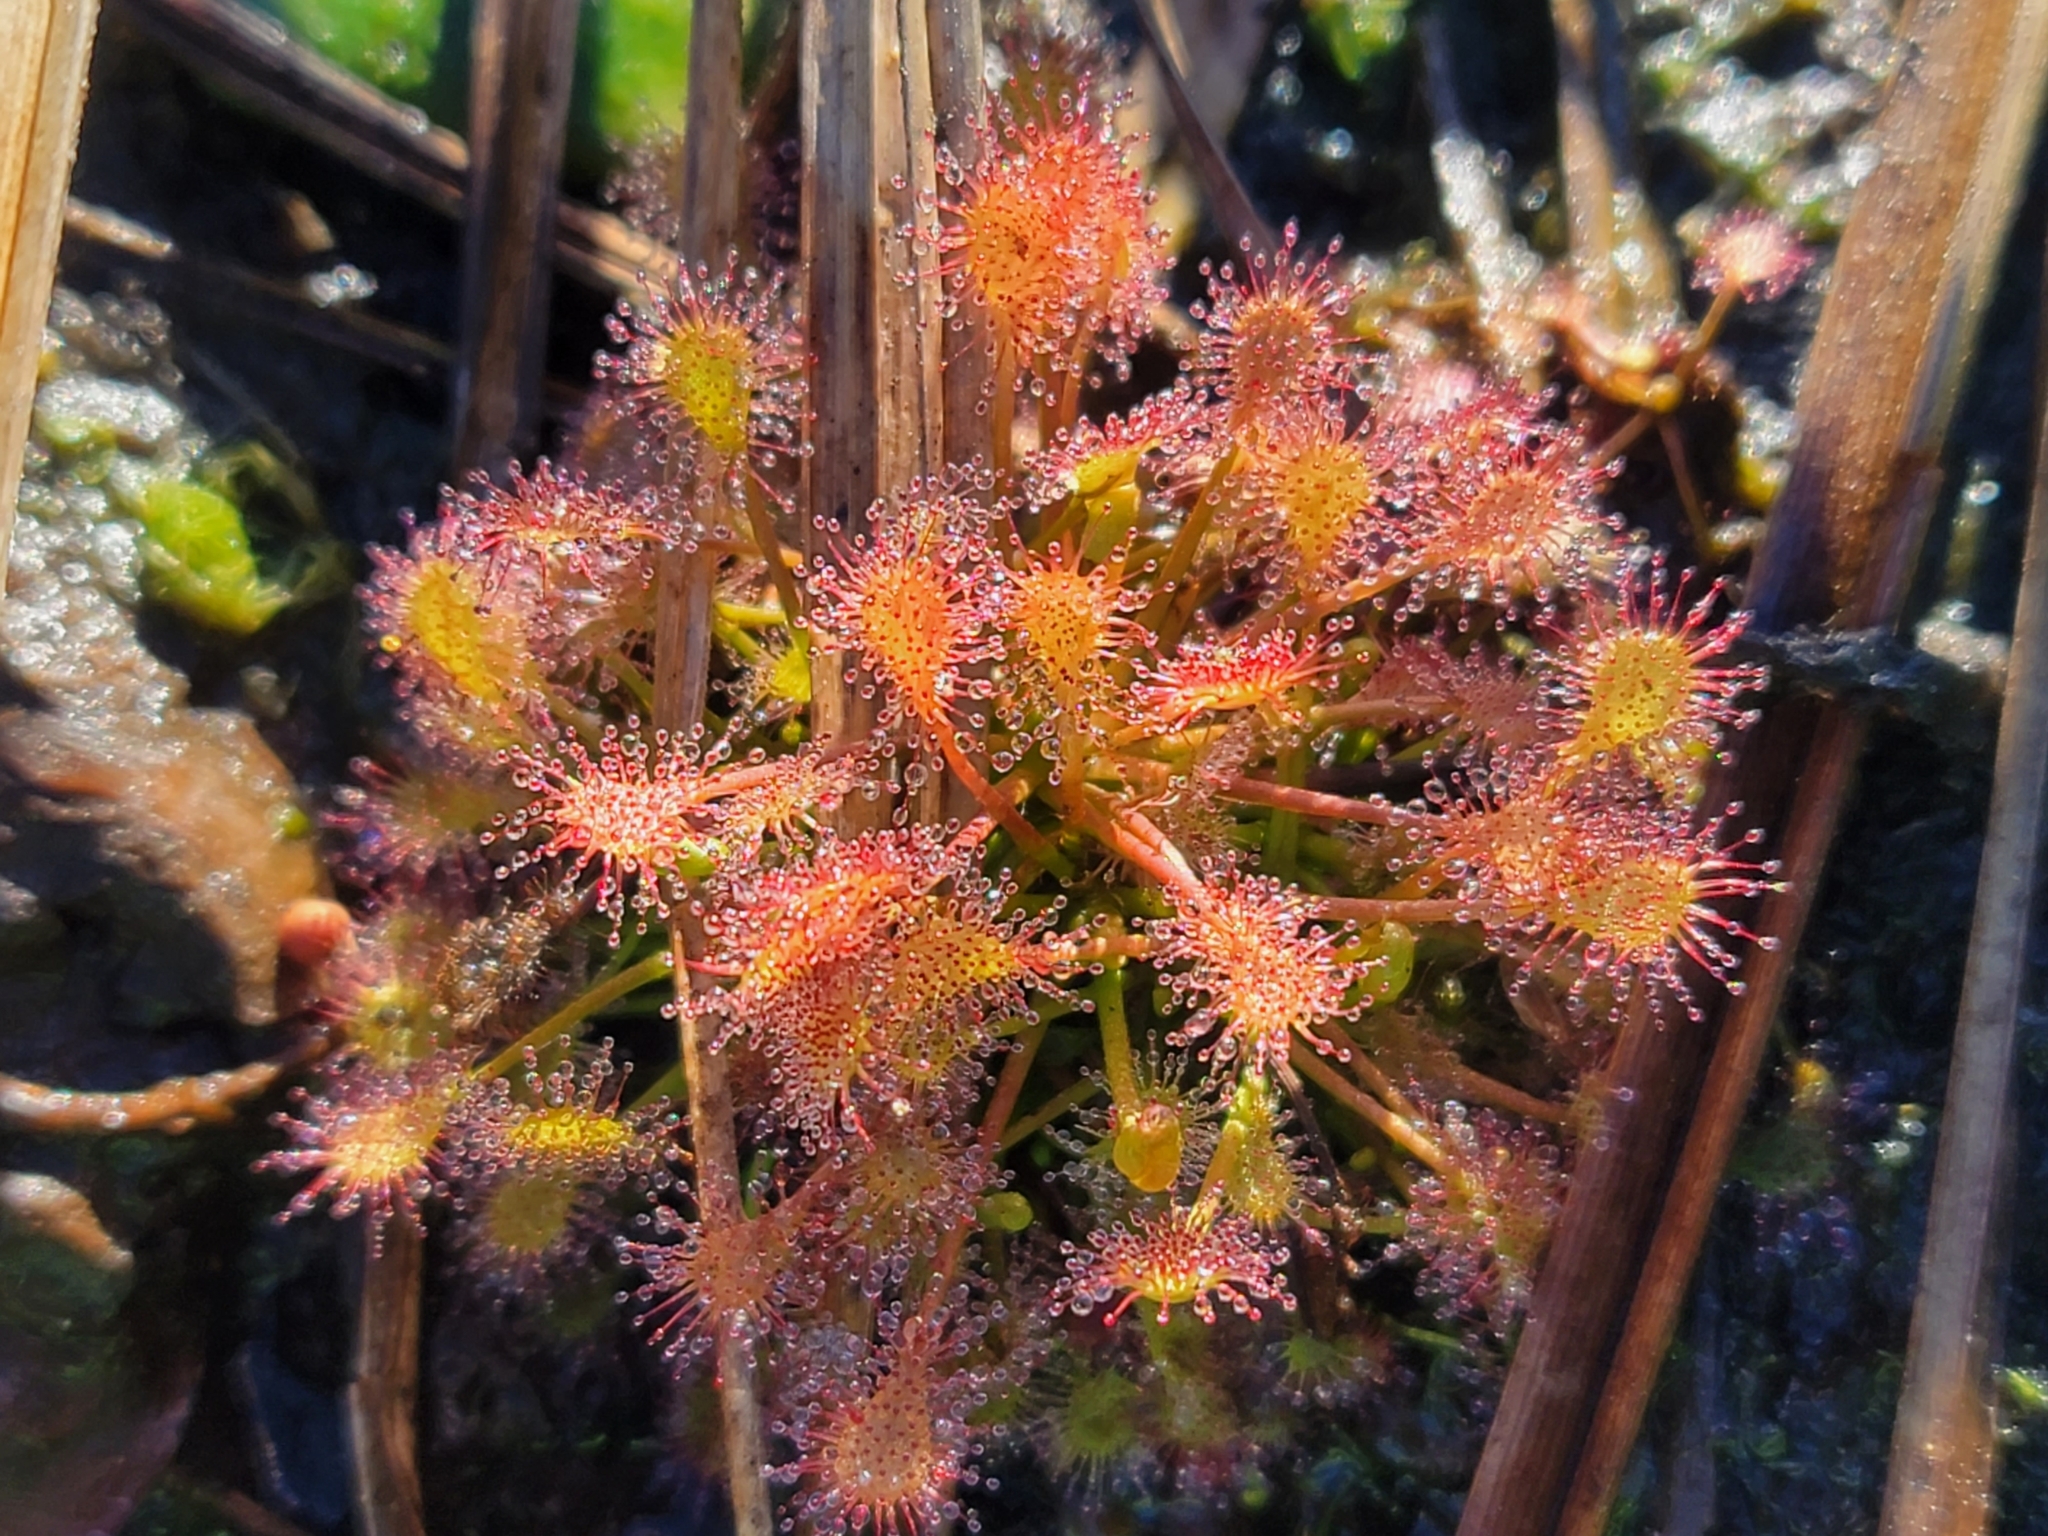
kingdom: Plantae
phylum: Tracheophyta
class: Magnoliopsida
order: Caryophyllales
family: Droseraceae
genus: Drosera
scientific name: Drosera intermedia
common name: Oblong-leaved sundew
